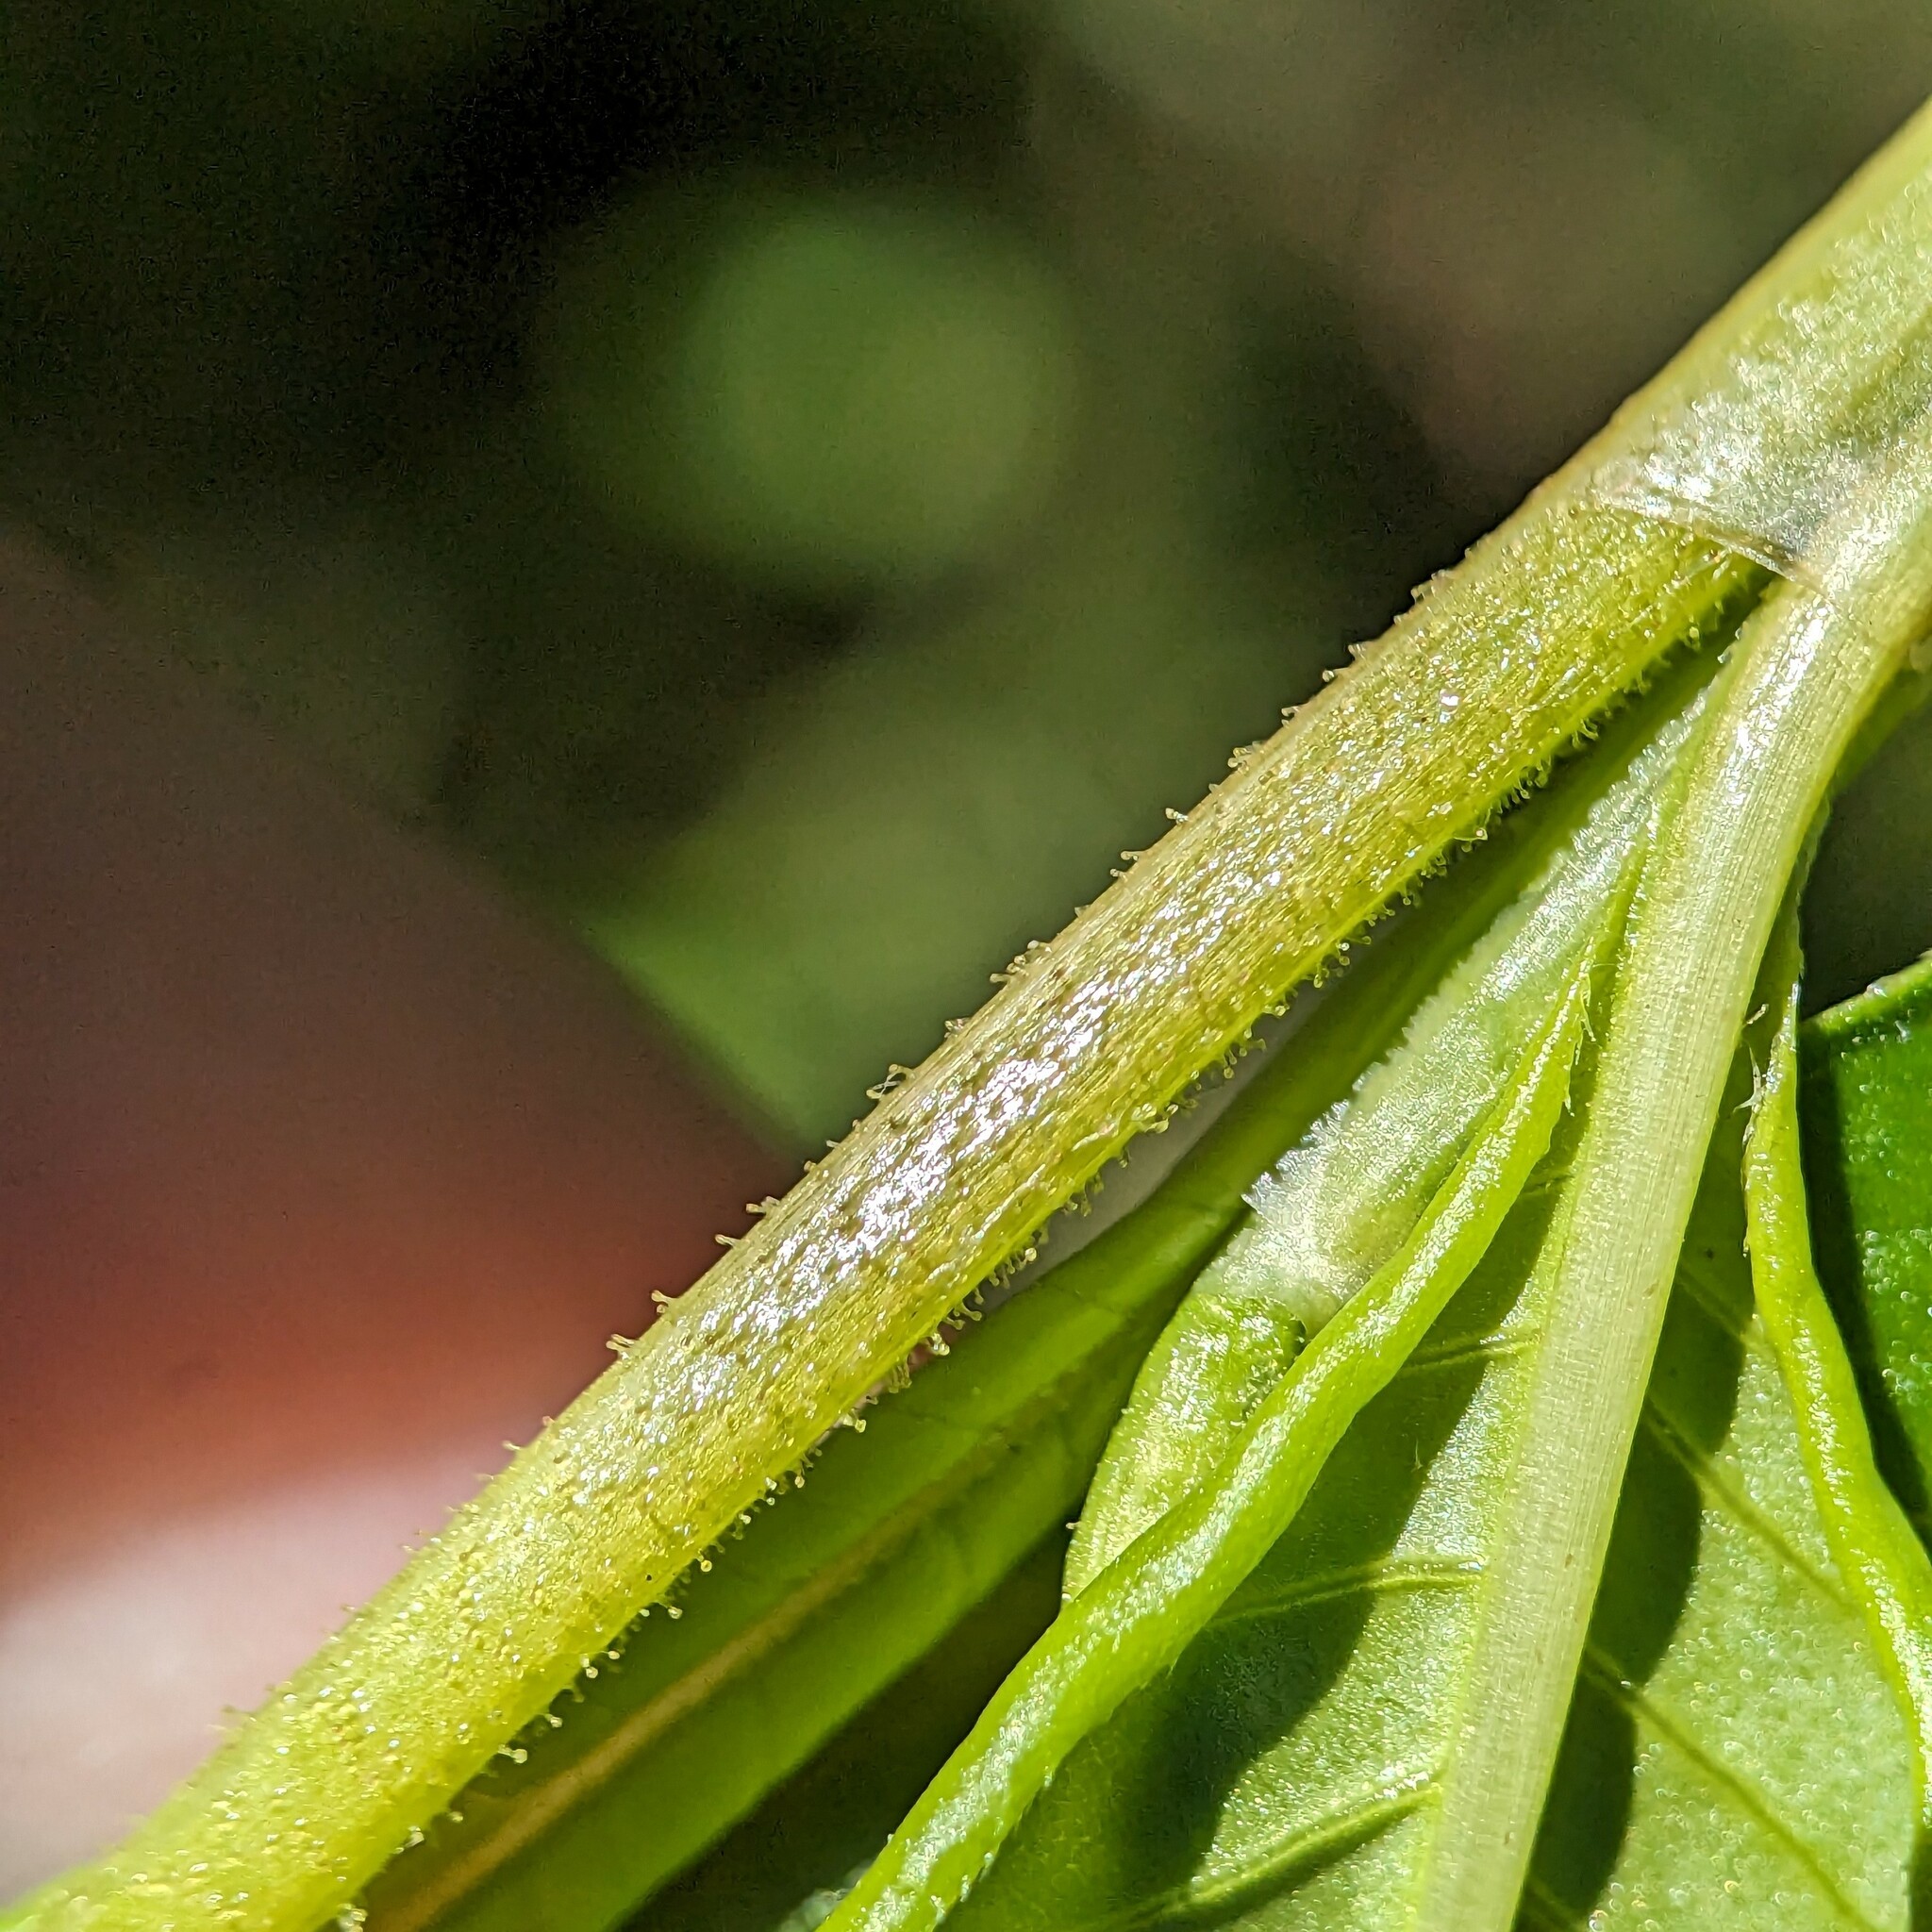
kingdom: Plantae
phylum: Tracheophyta
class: Magnoliopsida
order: Caryophyllales
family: Polygonaceae
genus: Persicaria
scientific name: Persicaria pensylvanica
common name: Pinkweed
